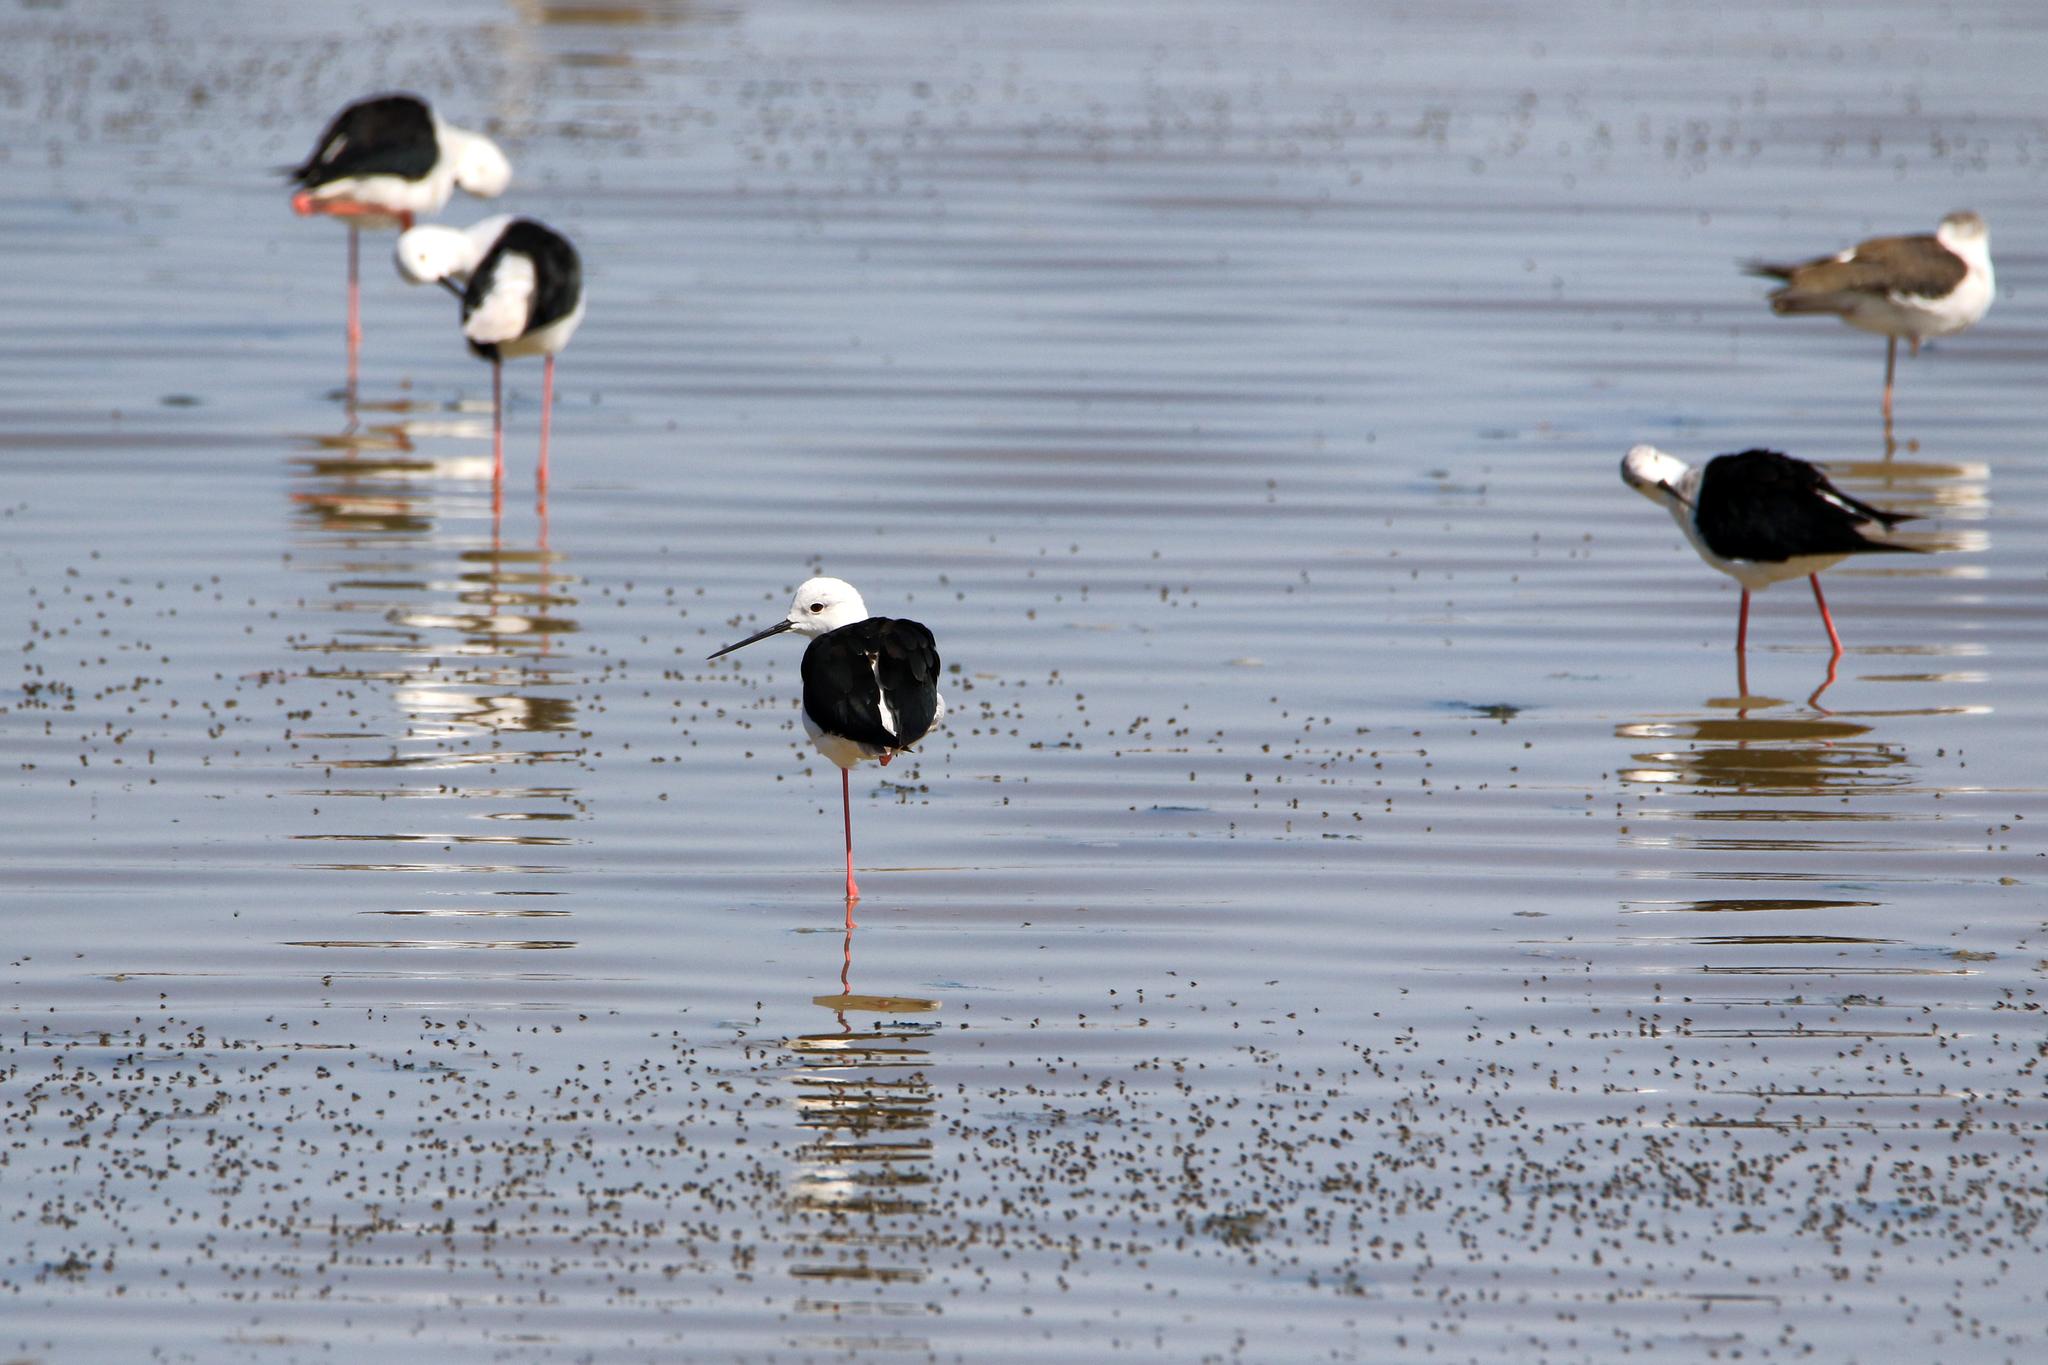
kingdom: Animalia
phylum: Chordata
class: Aves
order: Charadriiformes
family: Recurvirostridae
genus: Himantopus
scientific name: Himantopus himantopus
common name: Black-winged stilt
